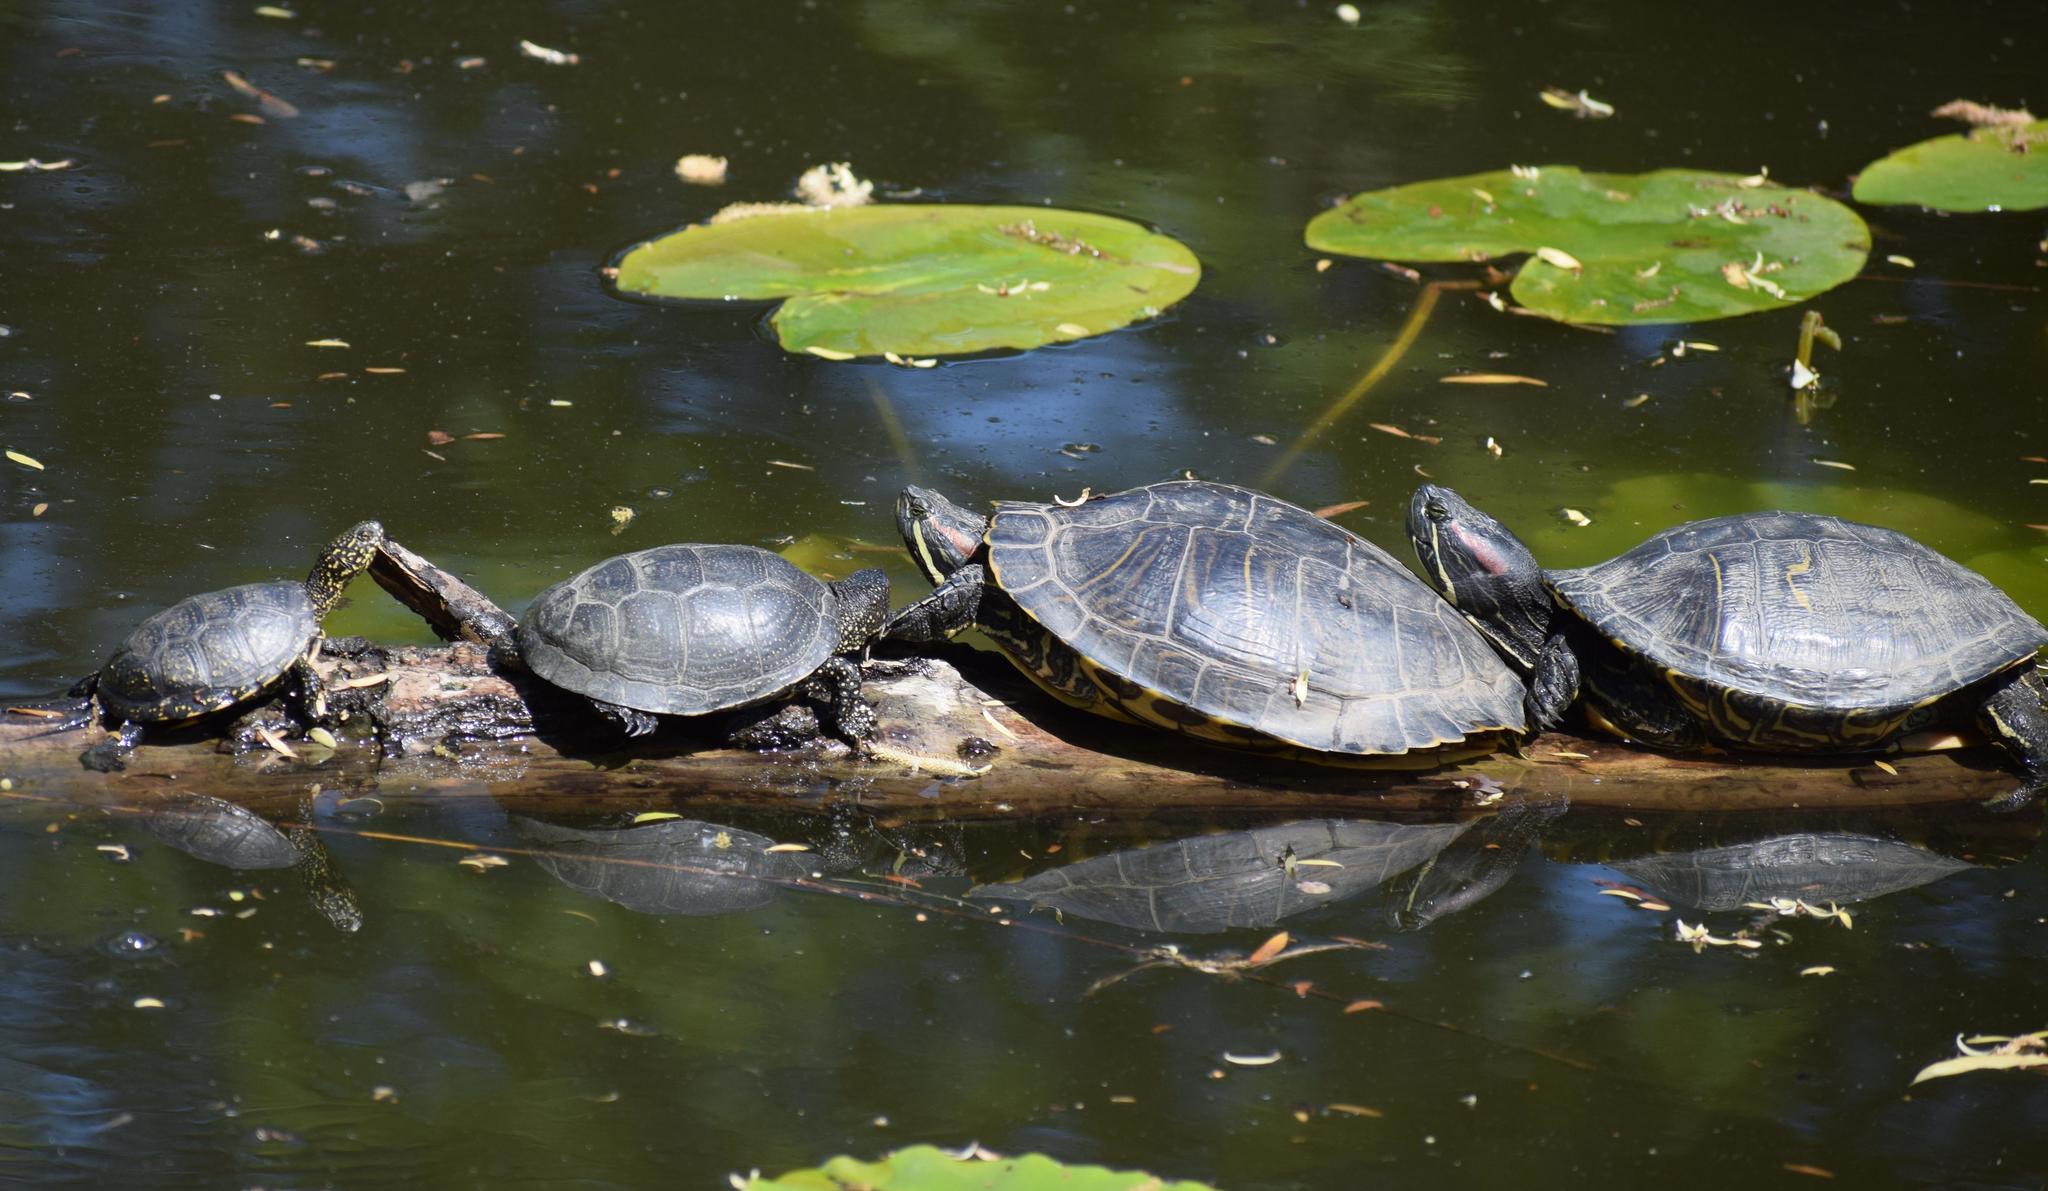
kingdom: Animalia
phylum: Chordata
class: Testudines
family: Emydidae
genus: Trachemys
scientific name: Trachemys scripta
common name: Slider
